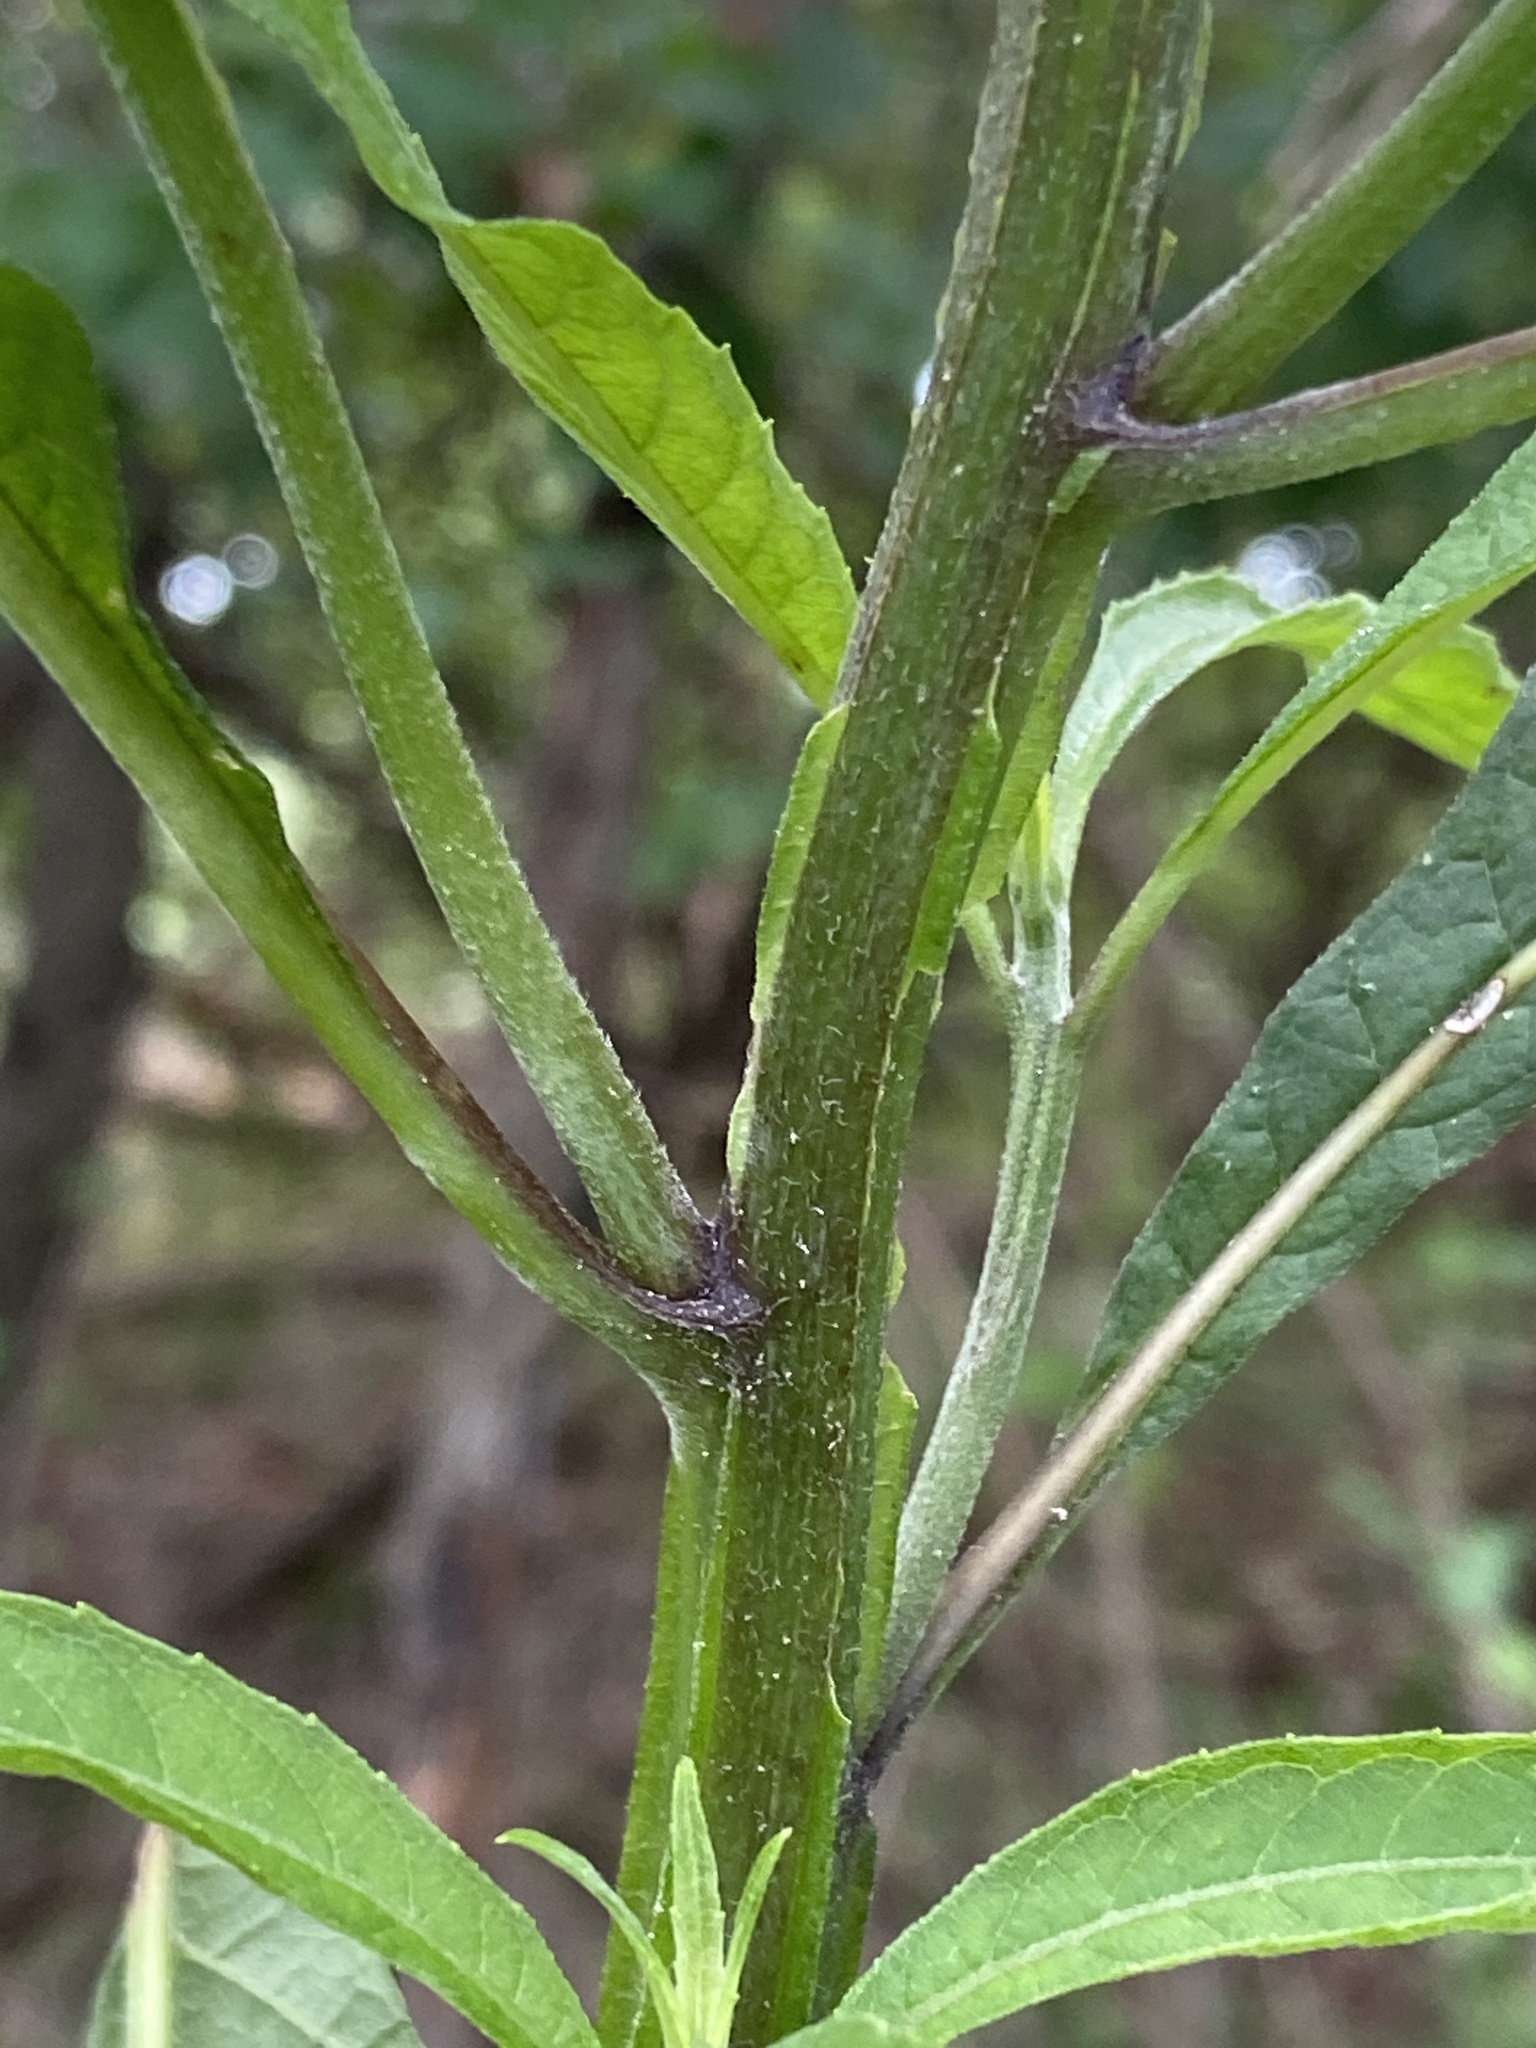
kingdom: Plantae
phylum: Tracheophyta
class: Magnoliopsida
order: Asterales
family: Asteraceae
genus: Verbesina
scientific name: Verbesina alternifolia
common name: Wingstem
